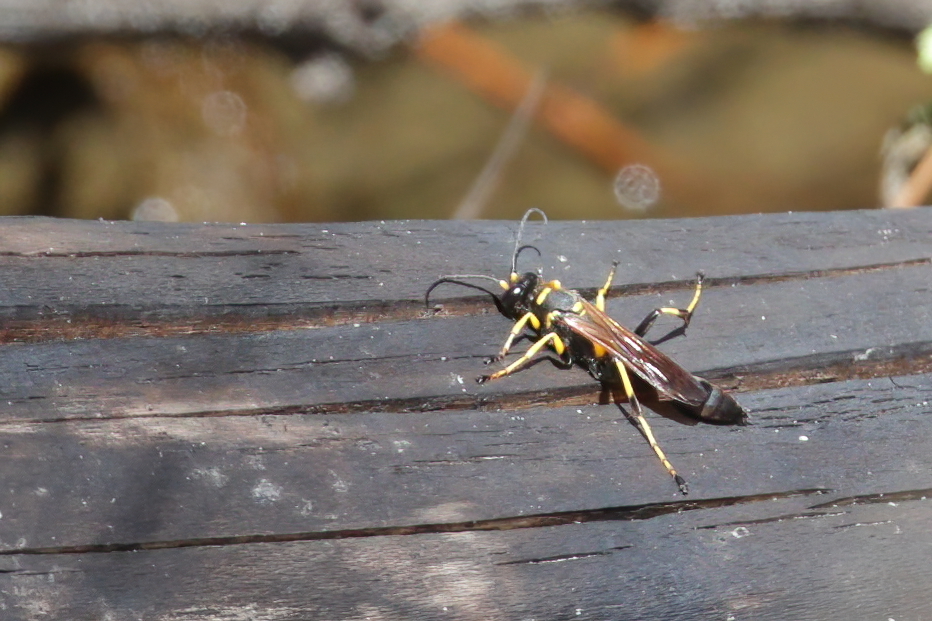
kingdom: Animalia
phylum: Arthropoda
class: Insecta
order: Hymenoptera
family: Sphecidae
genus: Sceliphron
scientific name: Sceliphron caementarium
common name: Mud dauber
